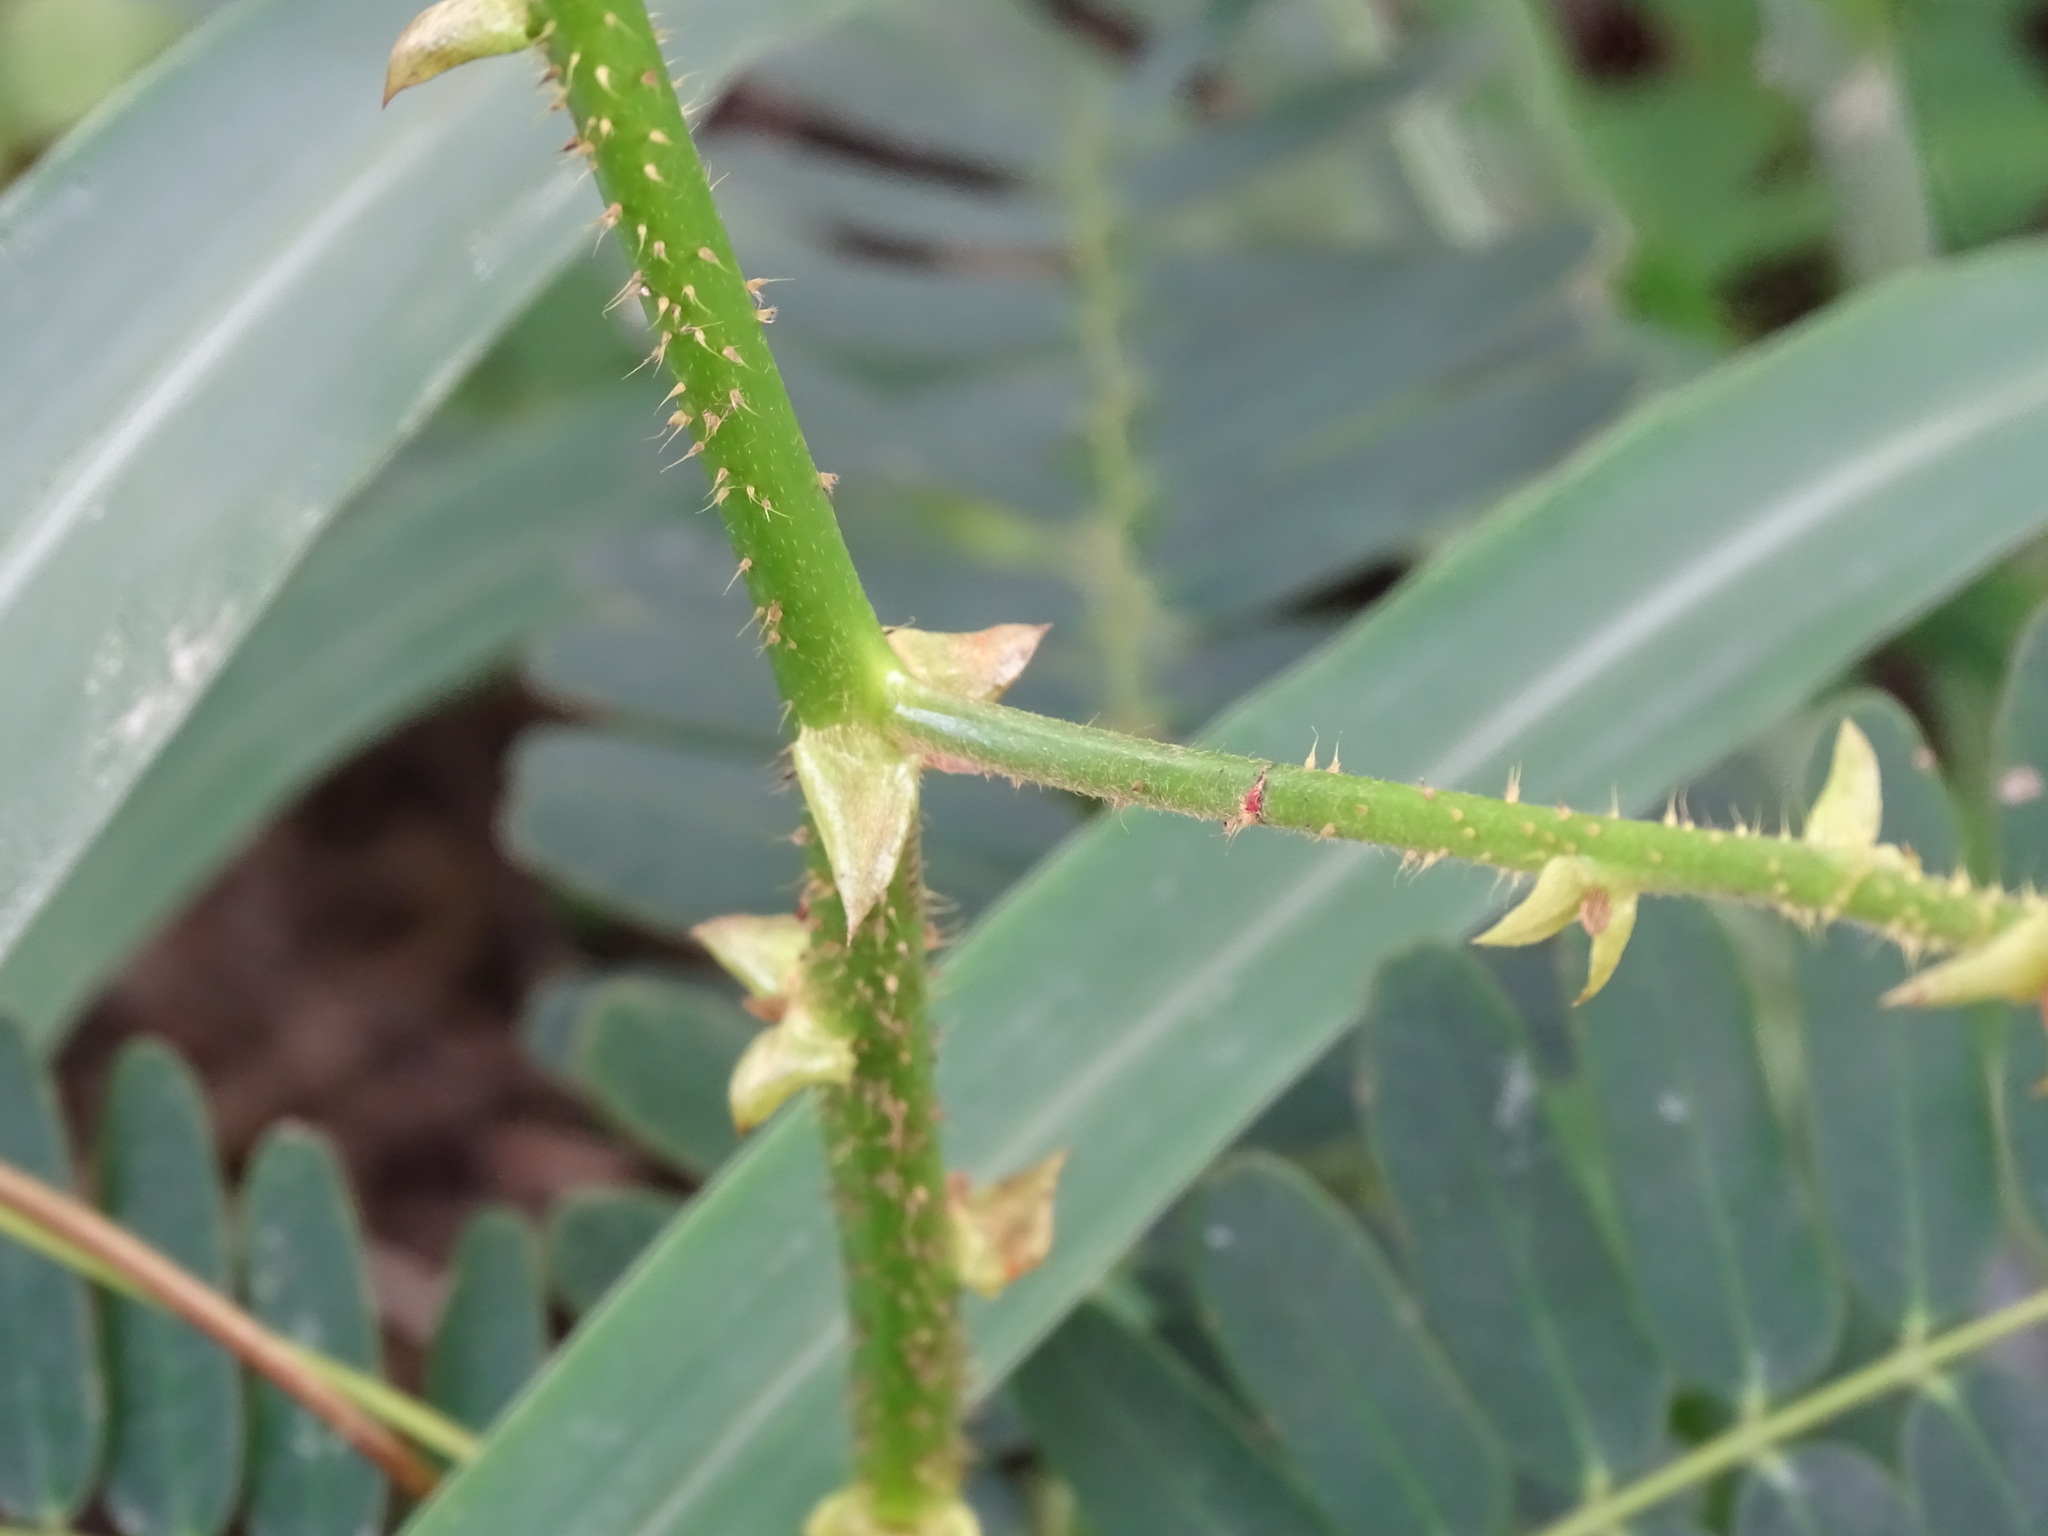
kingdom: Plantae
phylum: Tracheophyta
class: Magnoliopsida
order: Fabales
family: Fabaceae
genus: Machaerium
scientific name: Machaerium isadelphum
